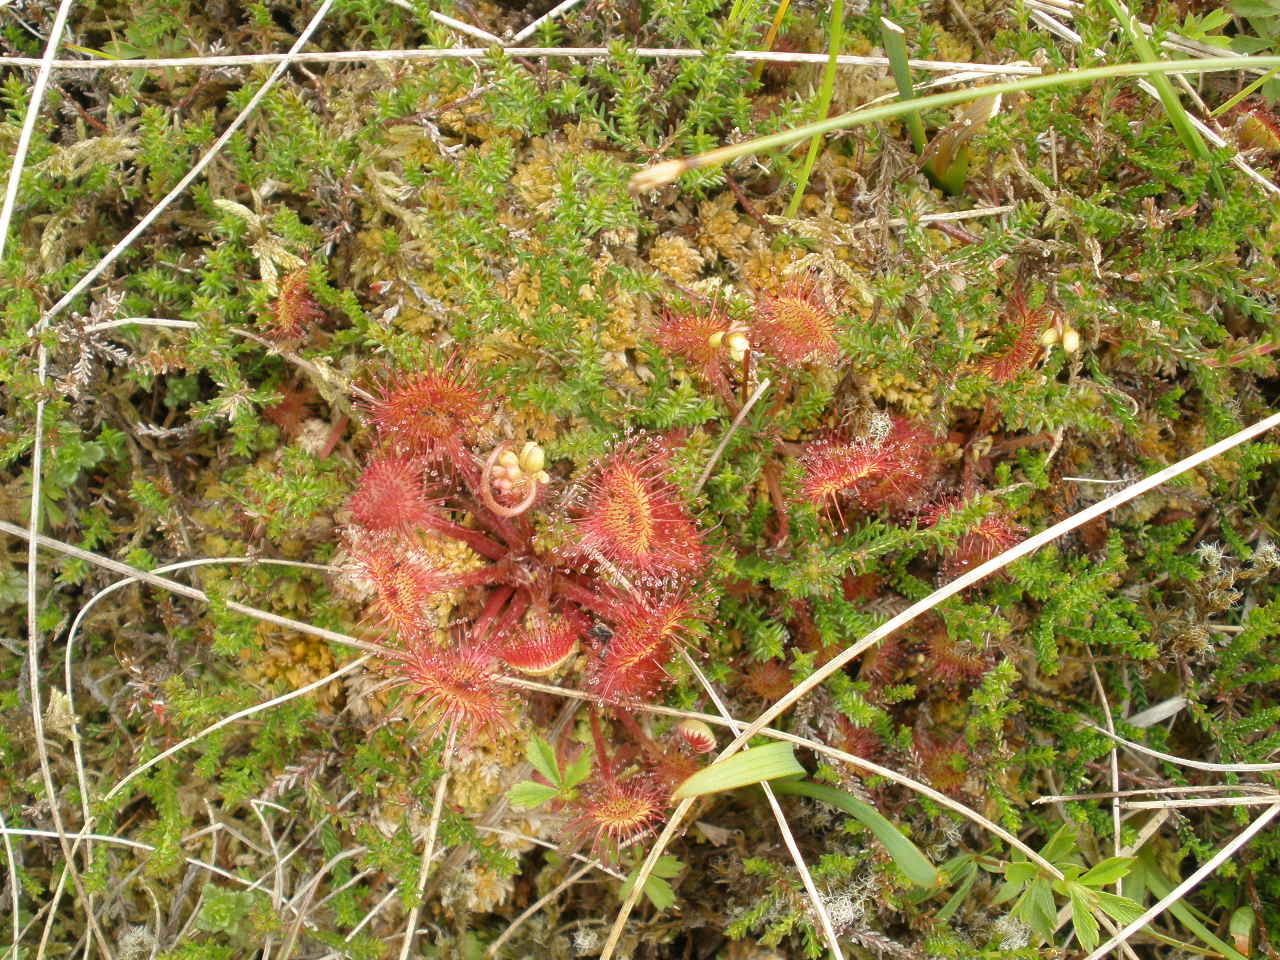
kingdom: Plantae
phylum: Tracheophyta
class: Magnoliopsida
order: Caryophyllales
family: Droseraceae
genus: Drosera
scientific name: Drosera rotundifolia
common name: Round-leaved sundew
